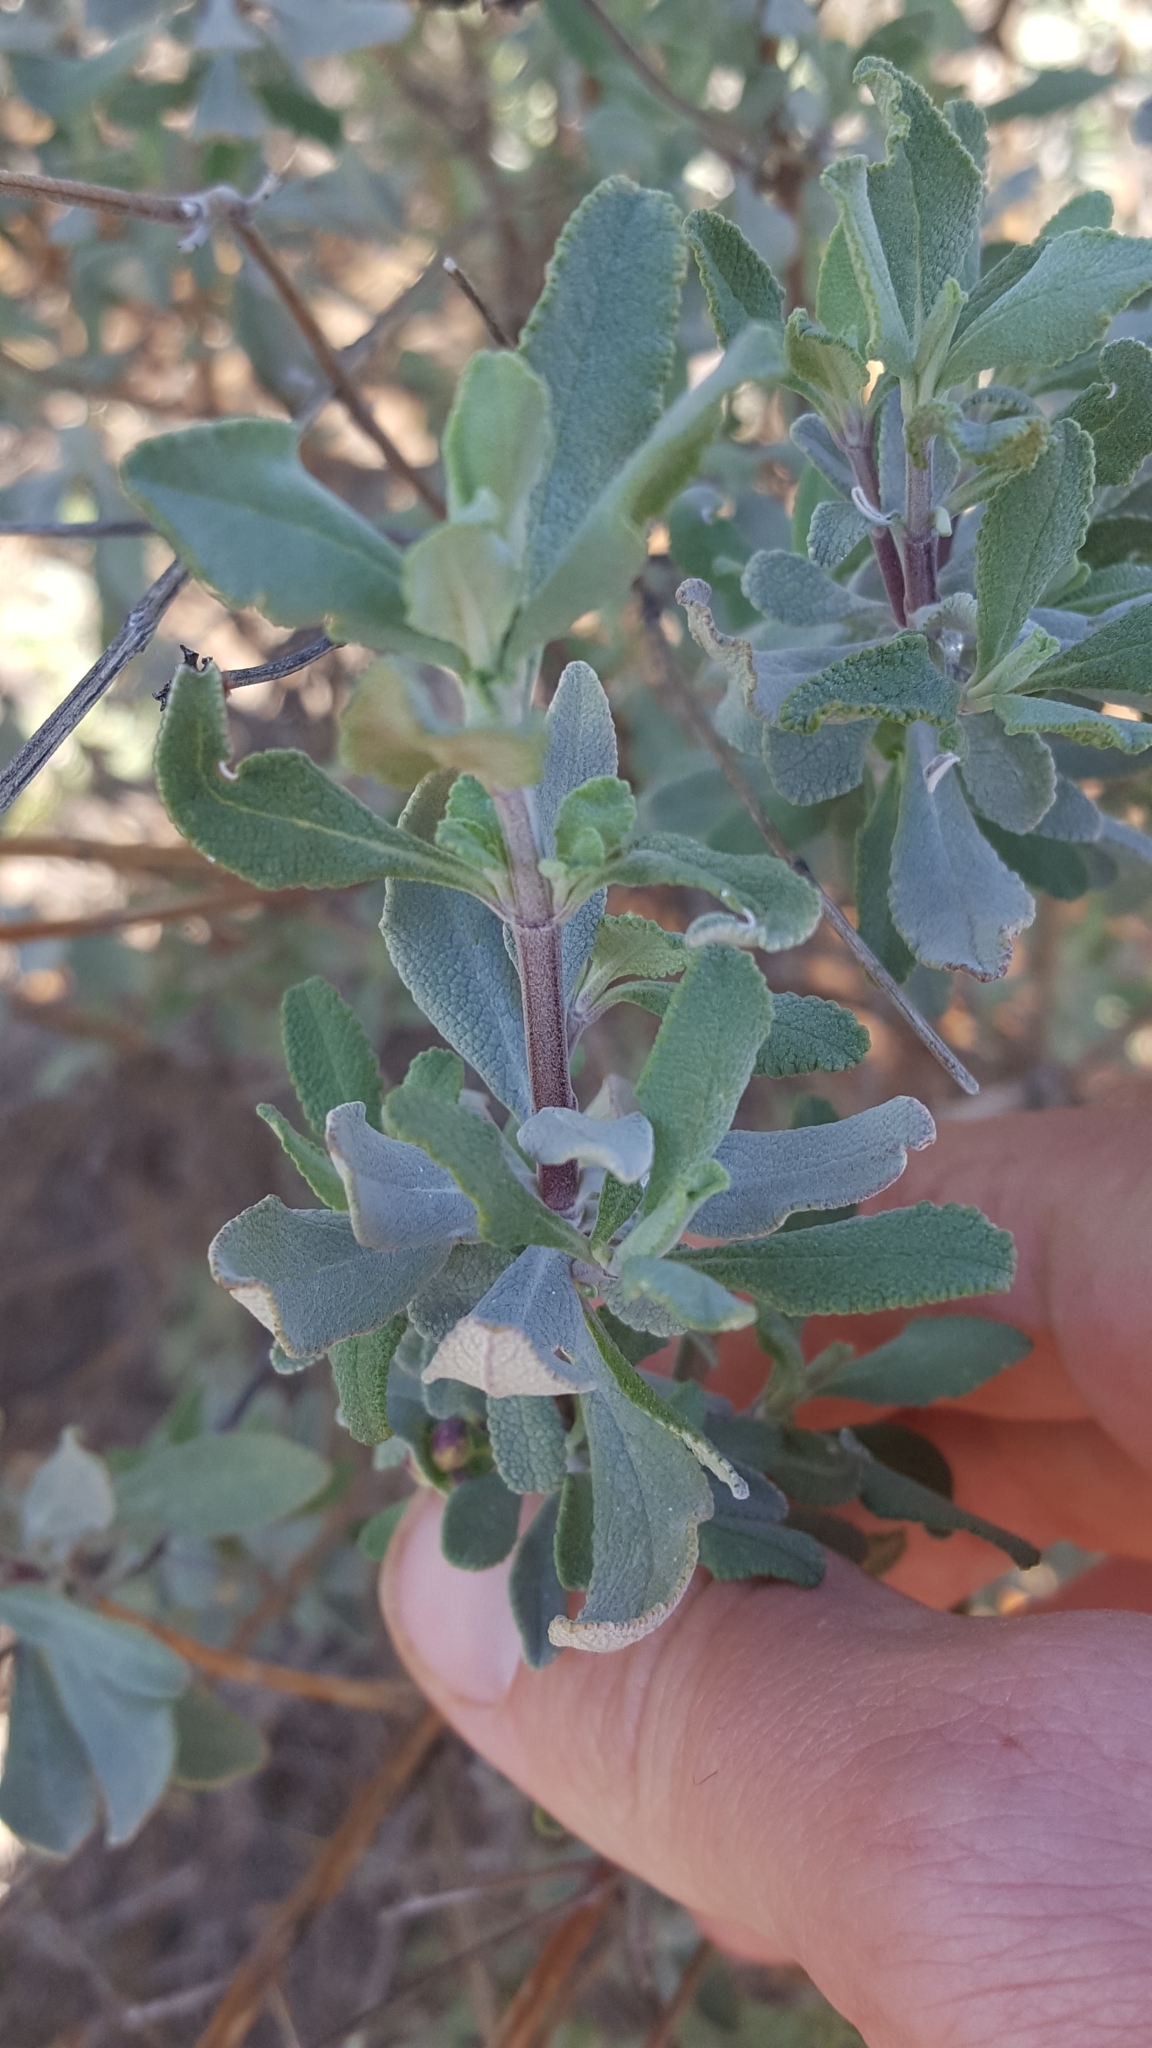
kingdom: Plantae
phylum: Tracheophyta
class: Magnoliopsida
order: Lamiales
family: Lamiaceae
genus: Salvia
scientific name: Salvia clevelandii
